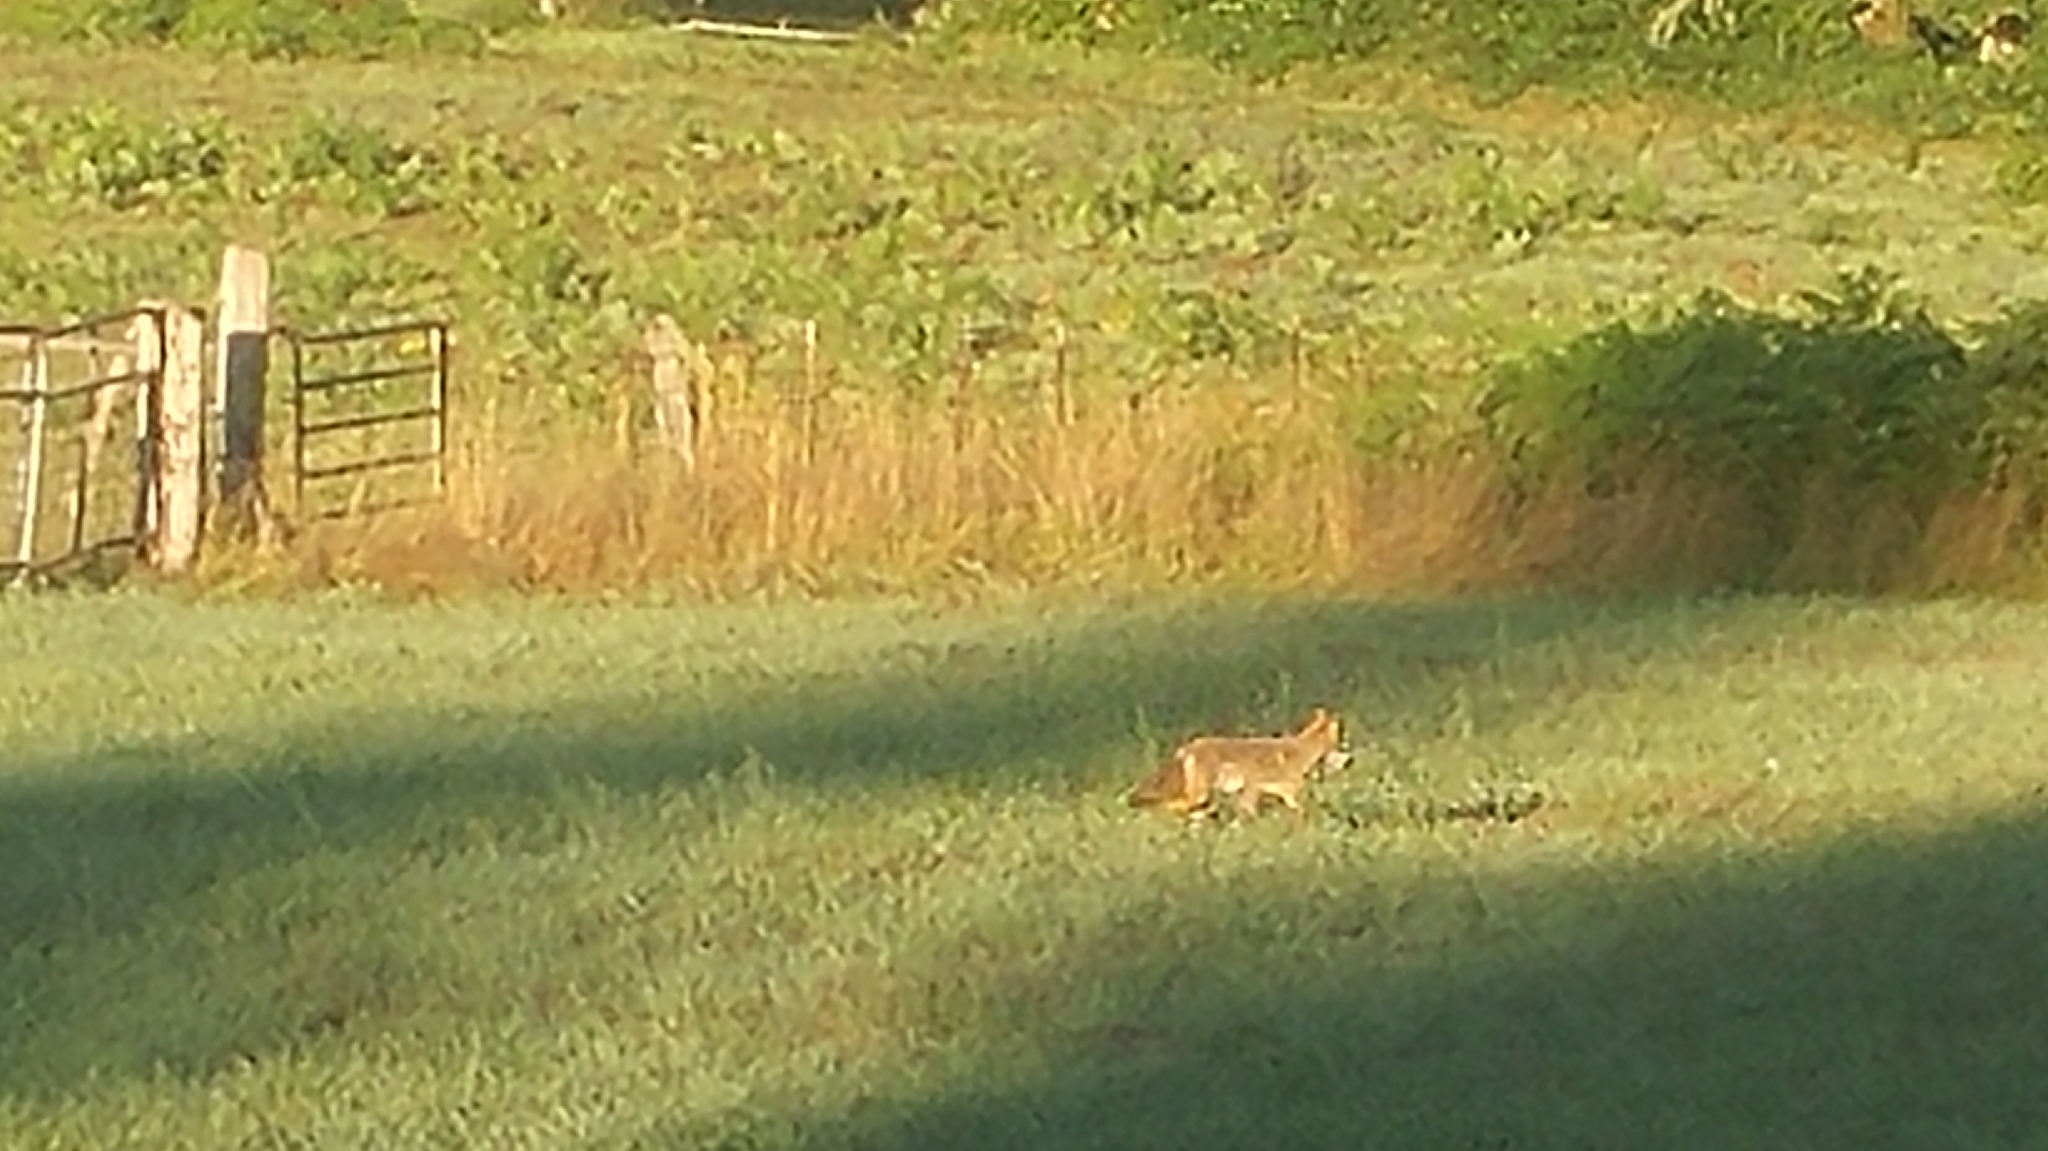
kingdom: Animalia
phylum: Chordata
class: Mammalia
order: Carnivora
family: Canidae
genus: Canis
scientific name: Canis latrans
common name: Coyote
